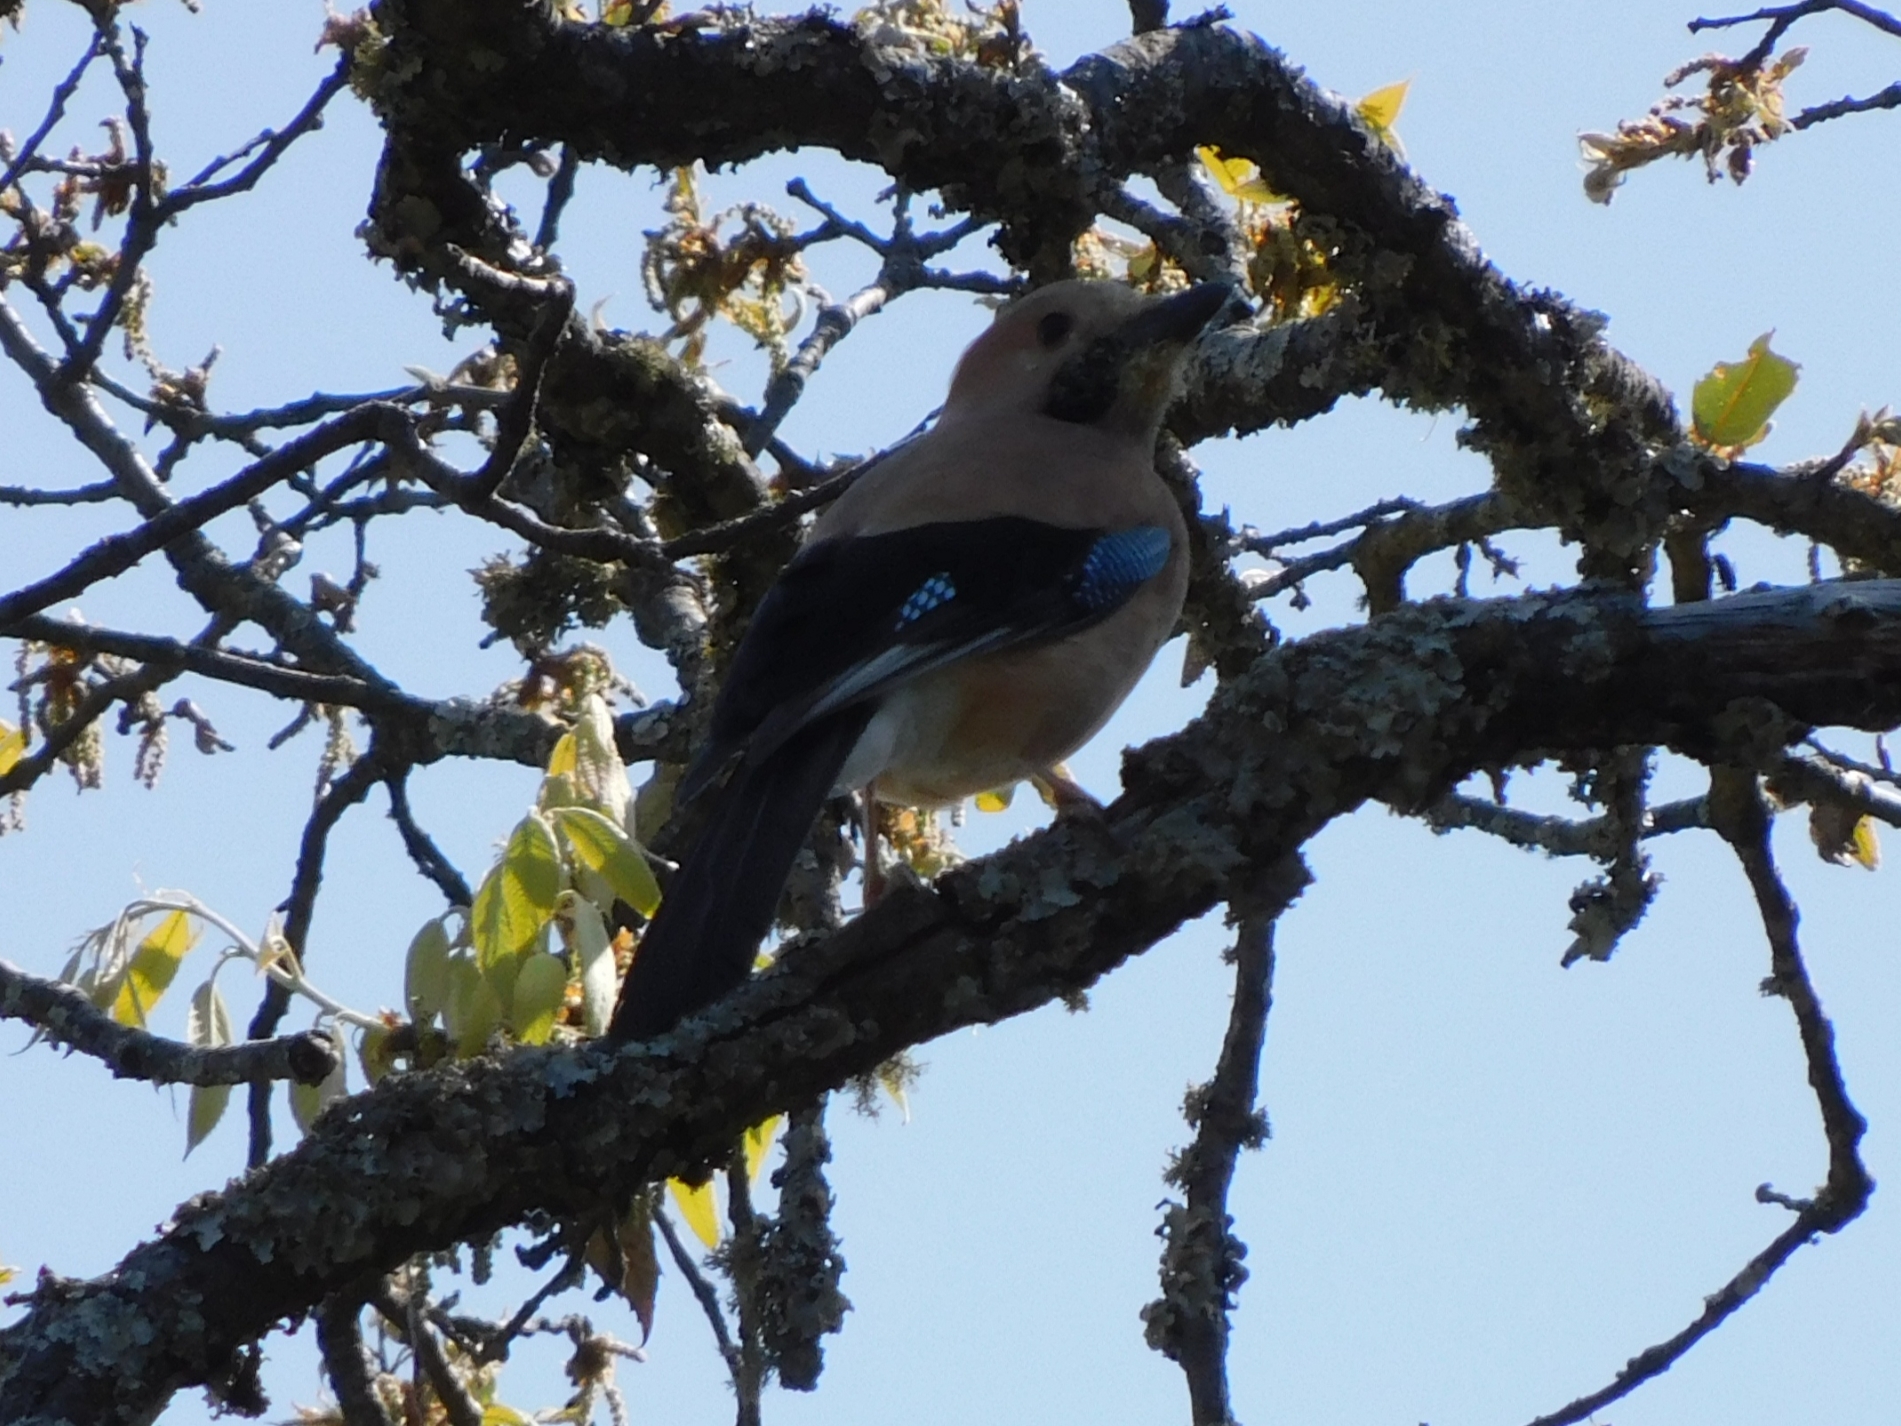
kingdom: Animalia
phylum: Chordata
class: Aves
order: Passeriformes
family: Corvidae
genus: Garrulus
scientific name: Garrulus glandarius
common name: Eurasian jay
